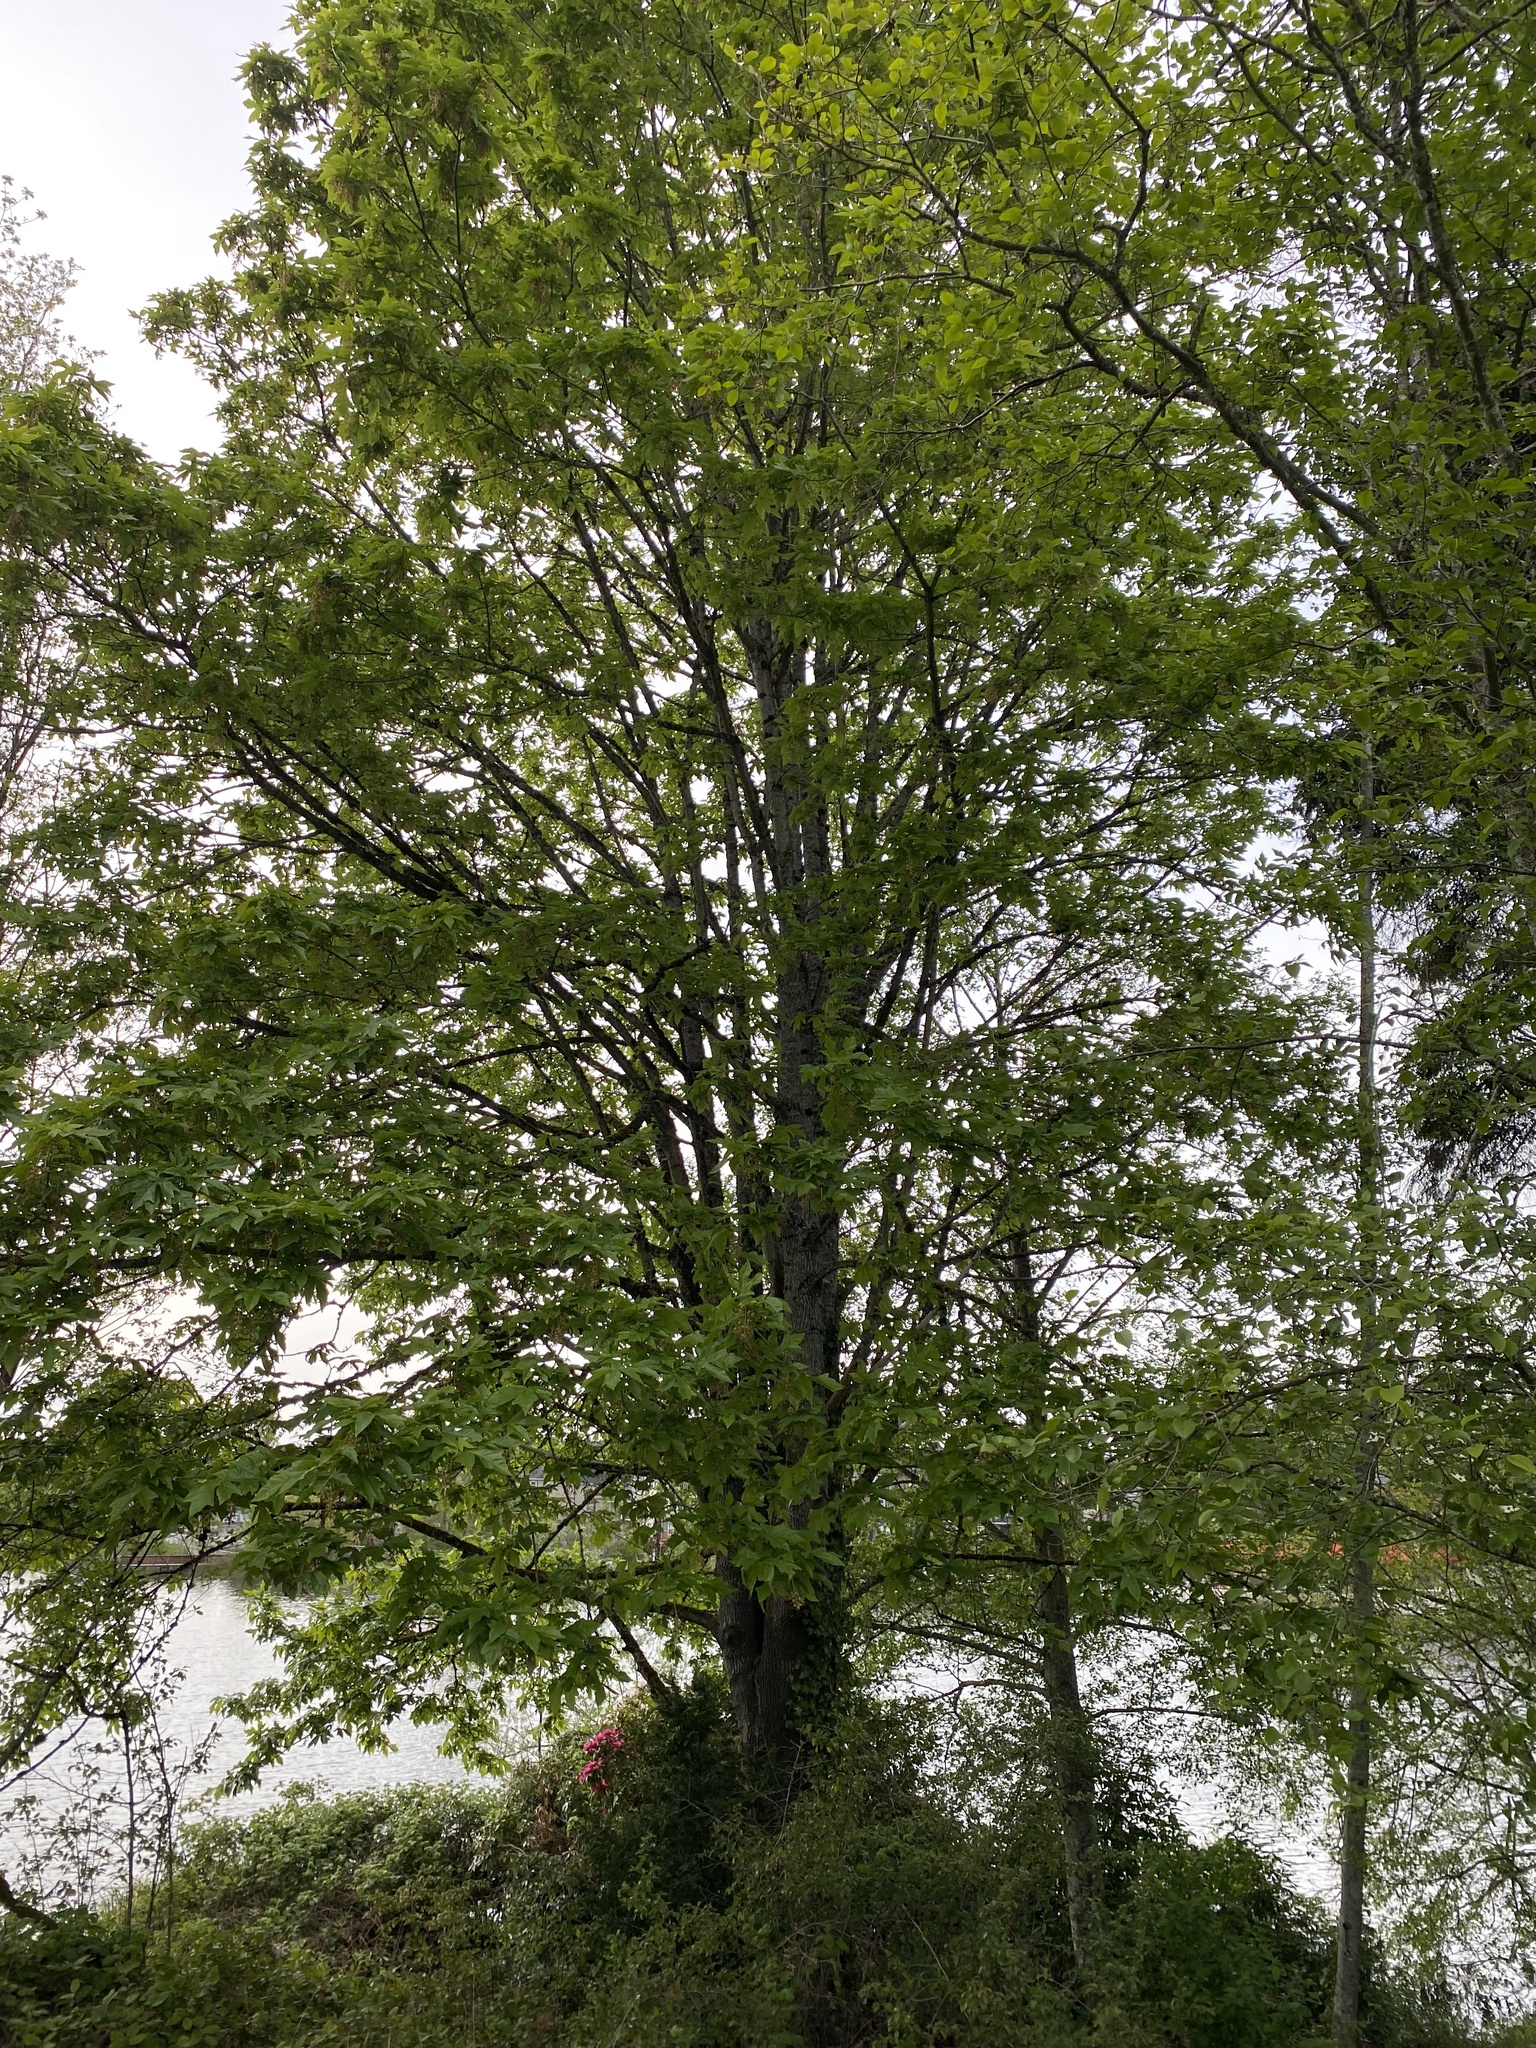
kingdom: Plantae
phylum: Tracheophyta
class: Magnoliopsida
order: Sapindales
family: Sapindaceae
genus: Acer
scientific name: Acer macrophyllum
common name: Oregon maple
